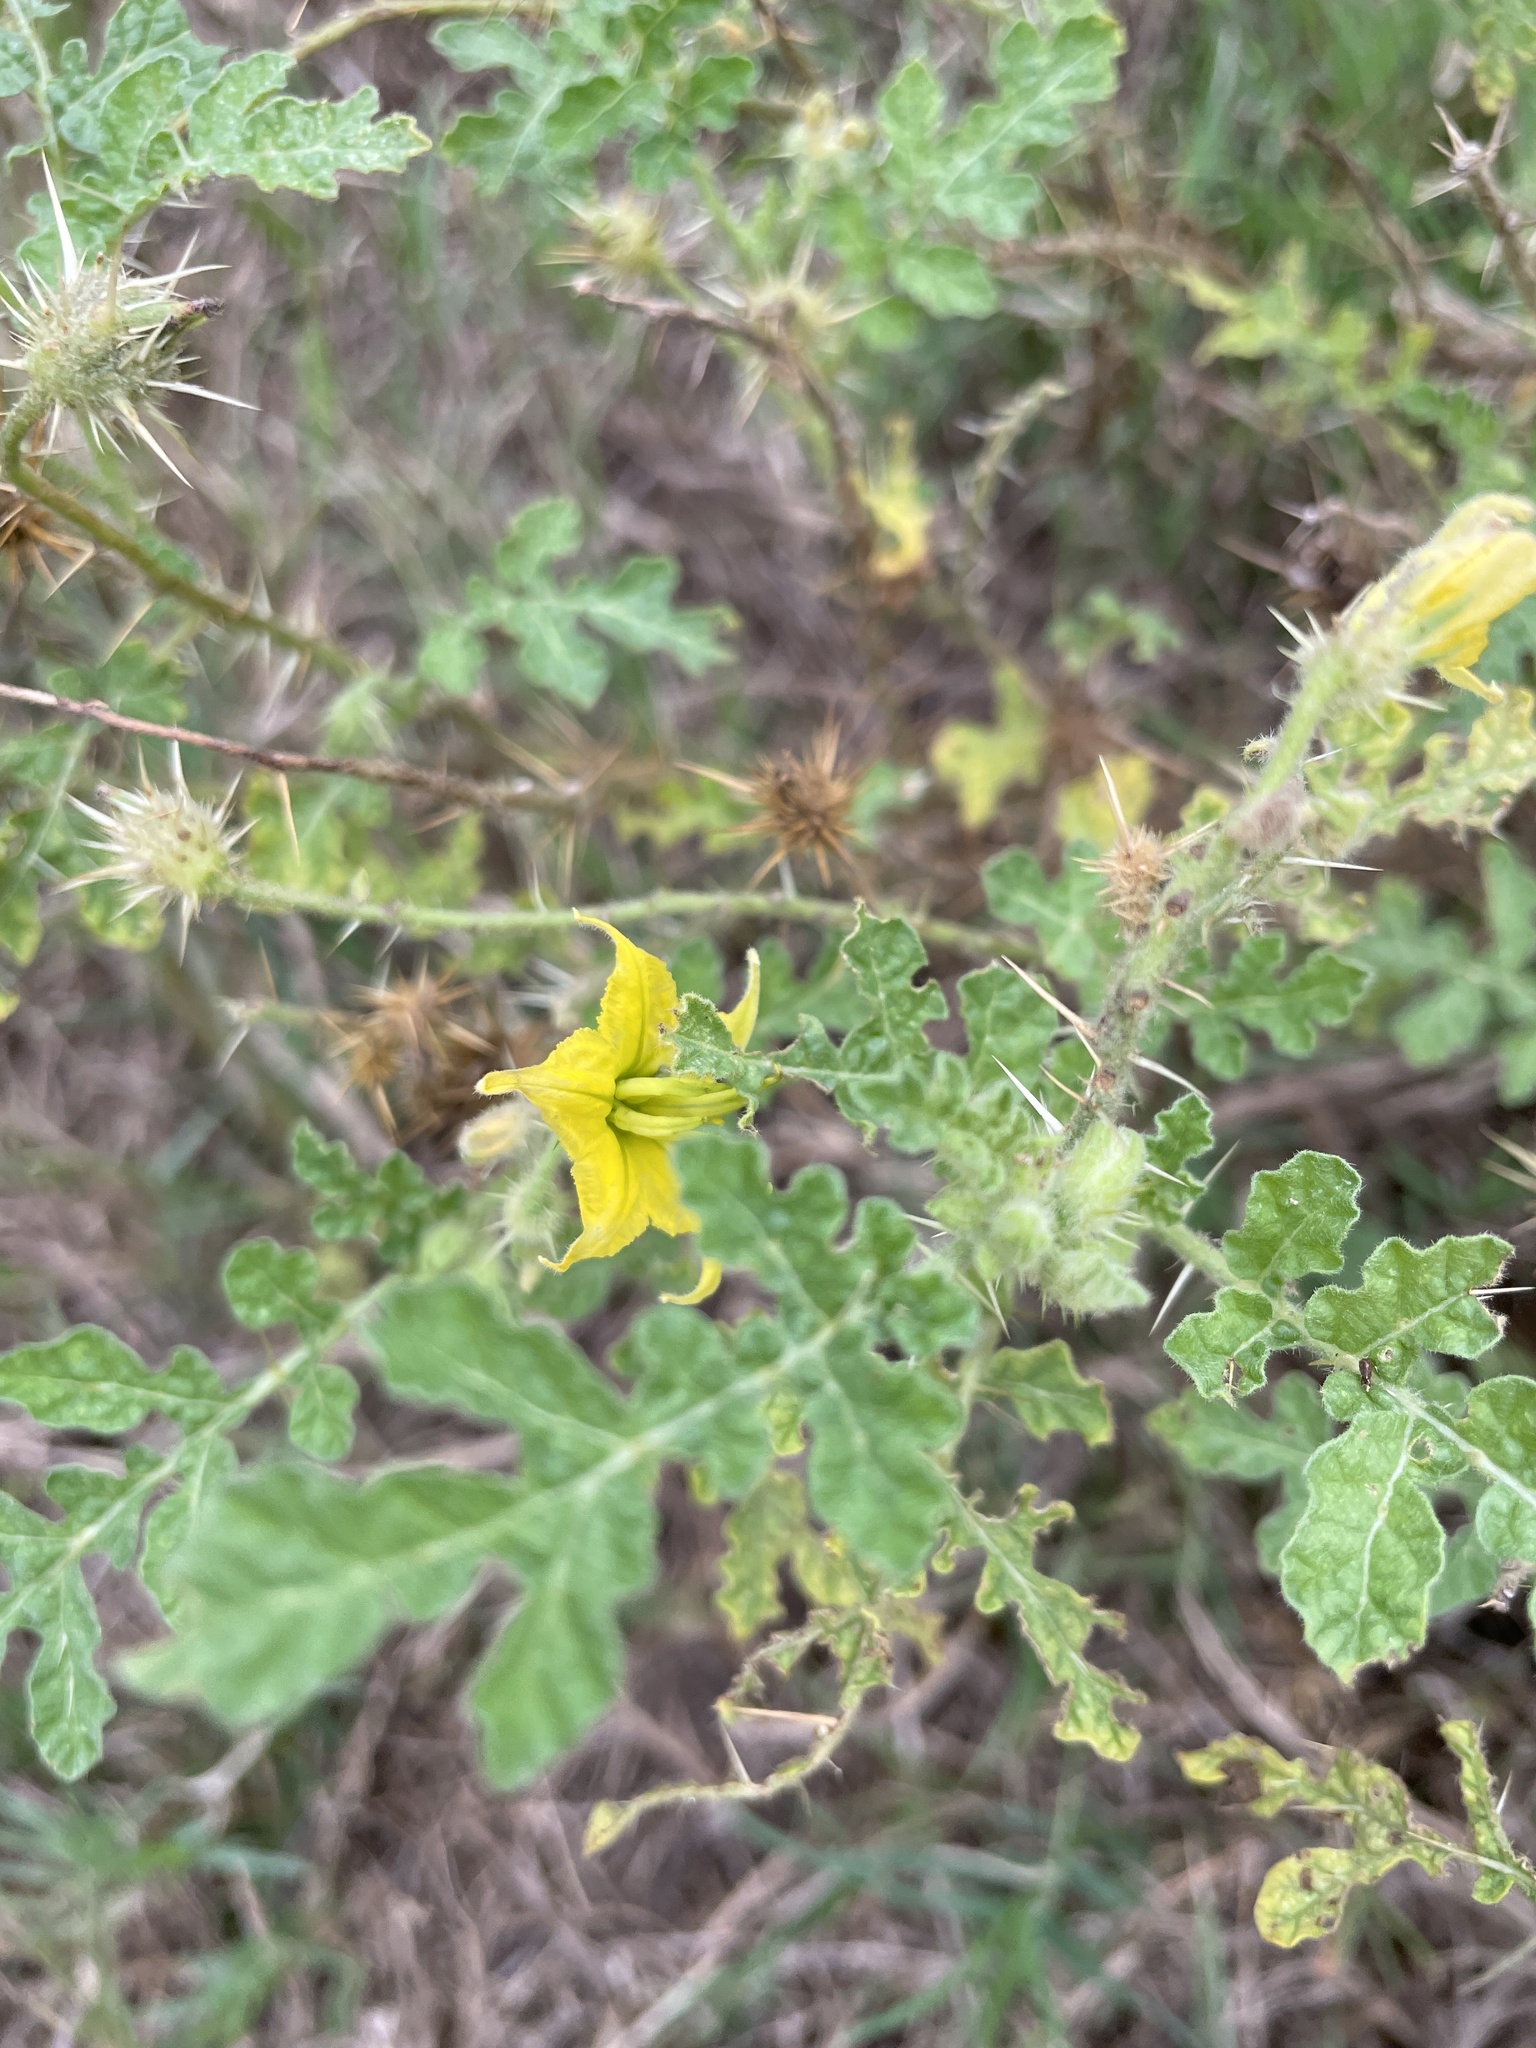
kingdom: Plantae
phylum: Tracheophyta
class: Magnoliopsida
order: Solanales
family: Solanaceae
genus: Solanum
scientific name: Solanum angustifolium
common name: Buffalobur nightshade
